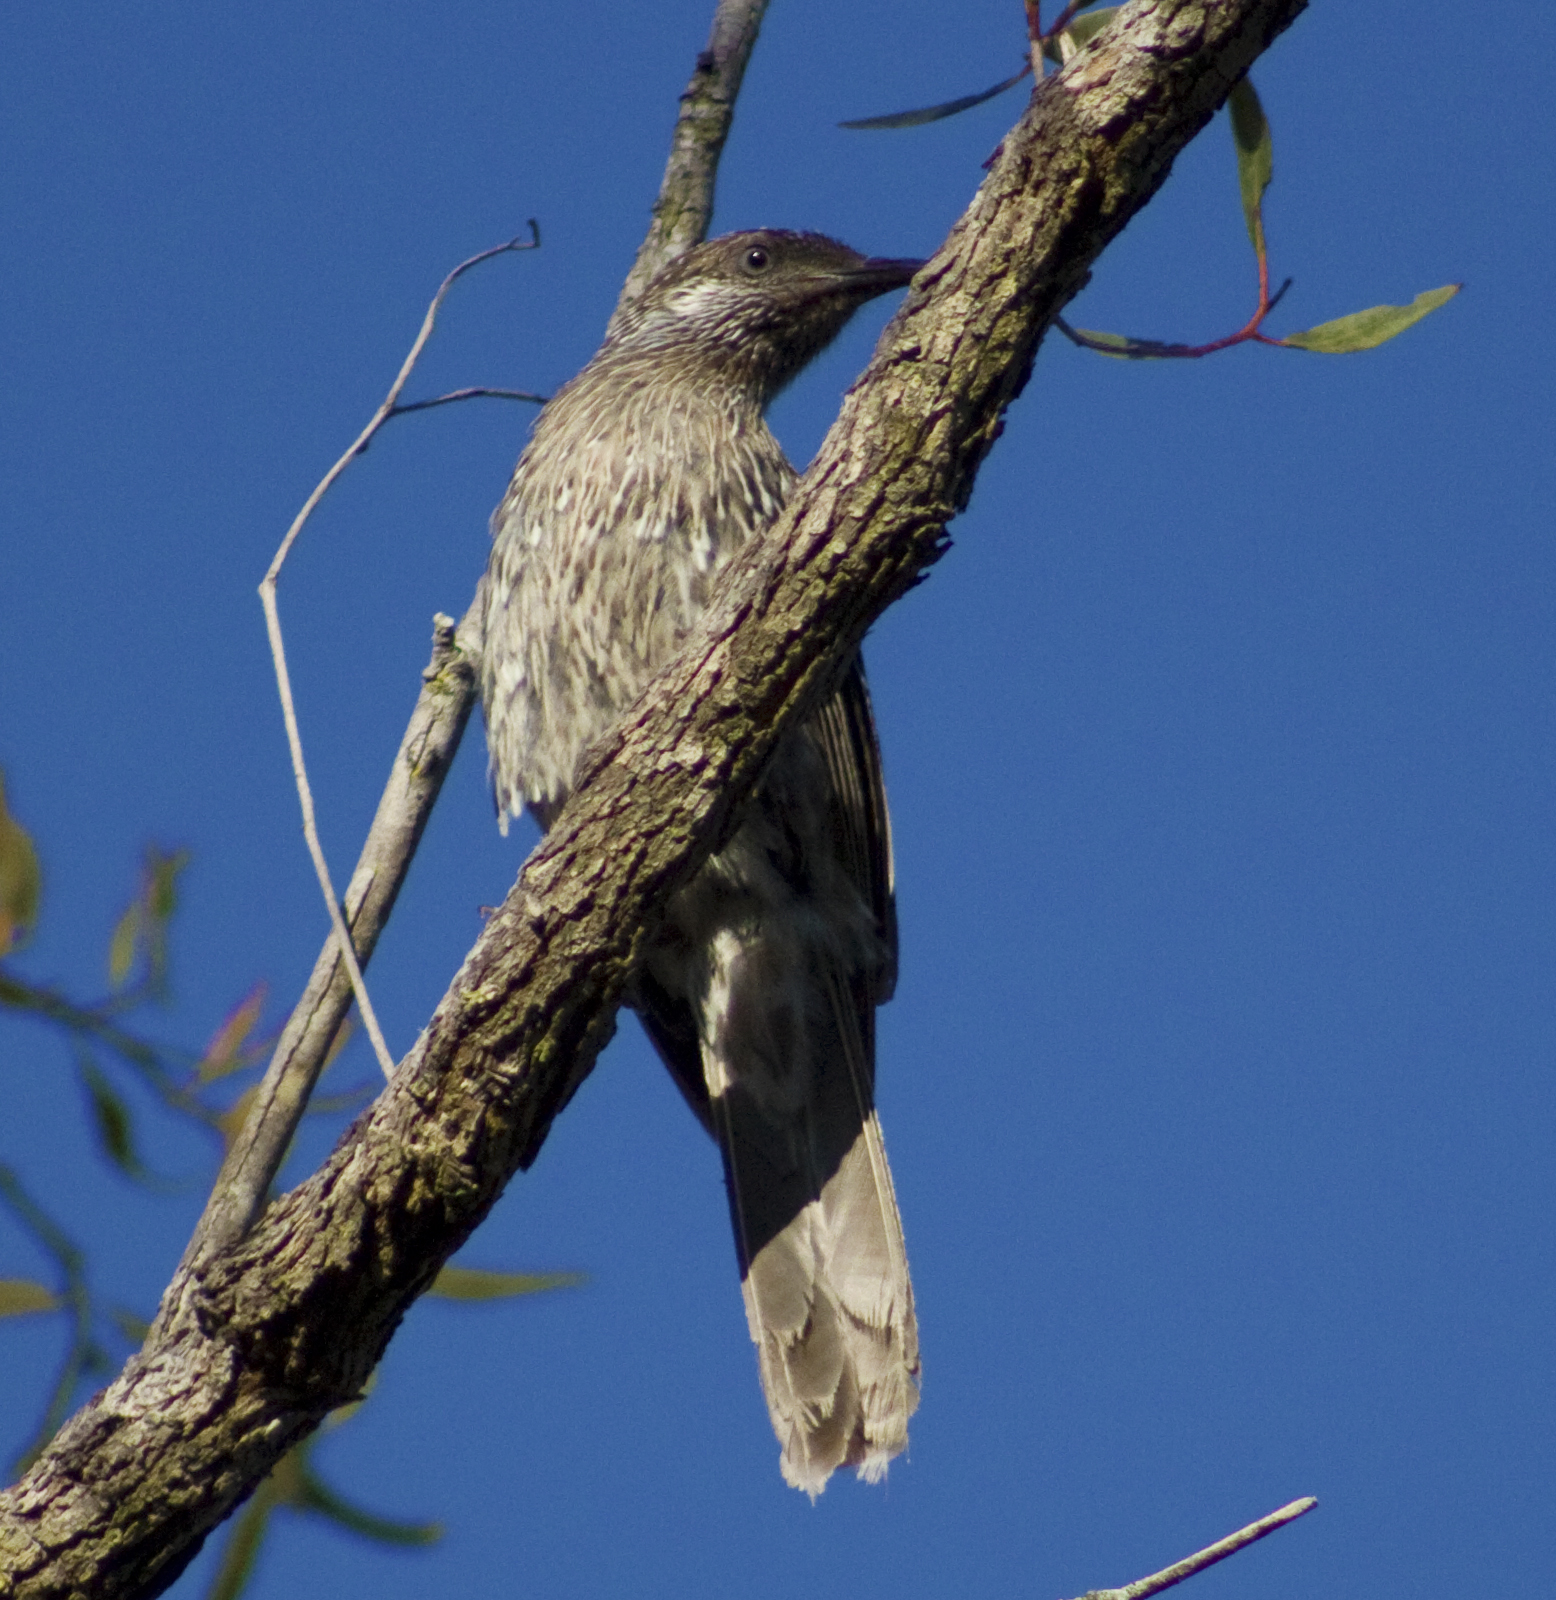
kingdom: Animalia
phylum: Chordata
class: Aves
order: Passeriformes
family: Meliphagidae
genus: Anthochaera
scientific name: Anthochaera chrysoptera
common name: Little wattlebird
